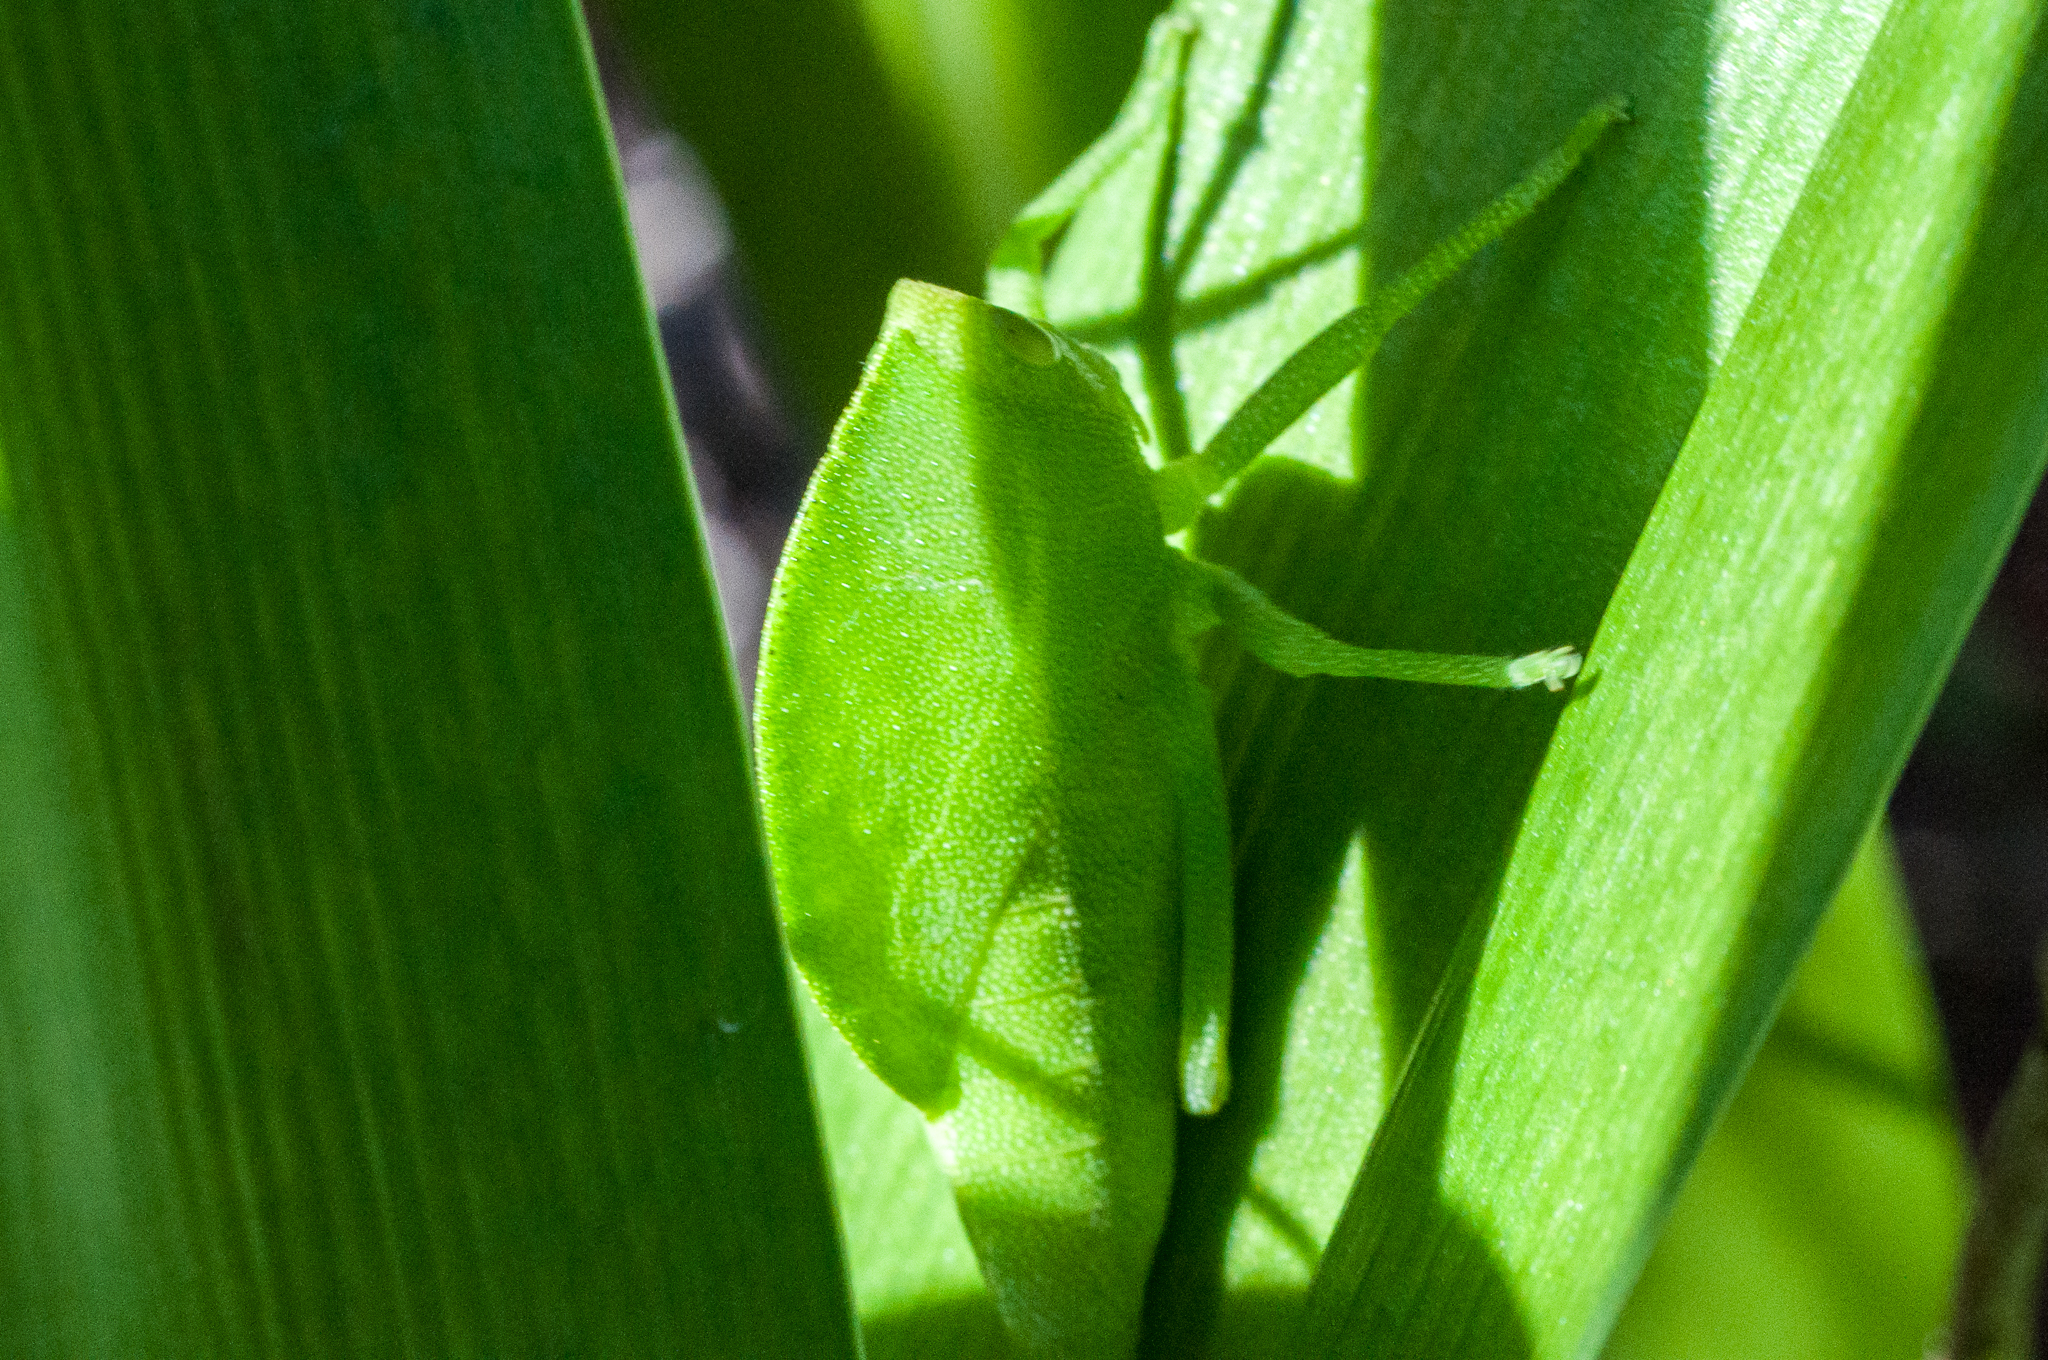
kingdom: Animalia
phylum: Arthropoda
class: Insecta
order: Orthoptera
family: Pneumoridae
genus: Bullacris
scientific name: Bullacris unicolor
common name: Bladder grasshopper
